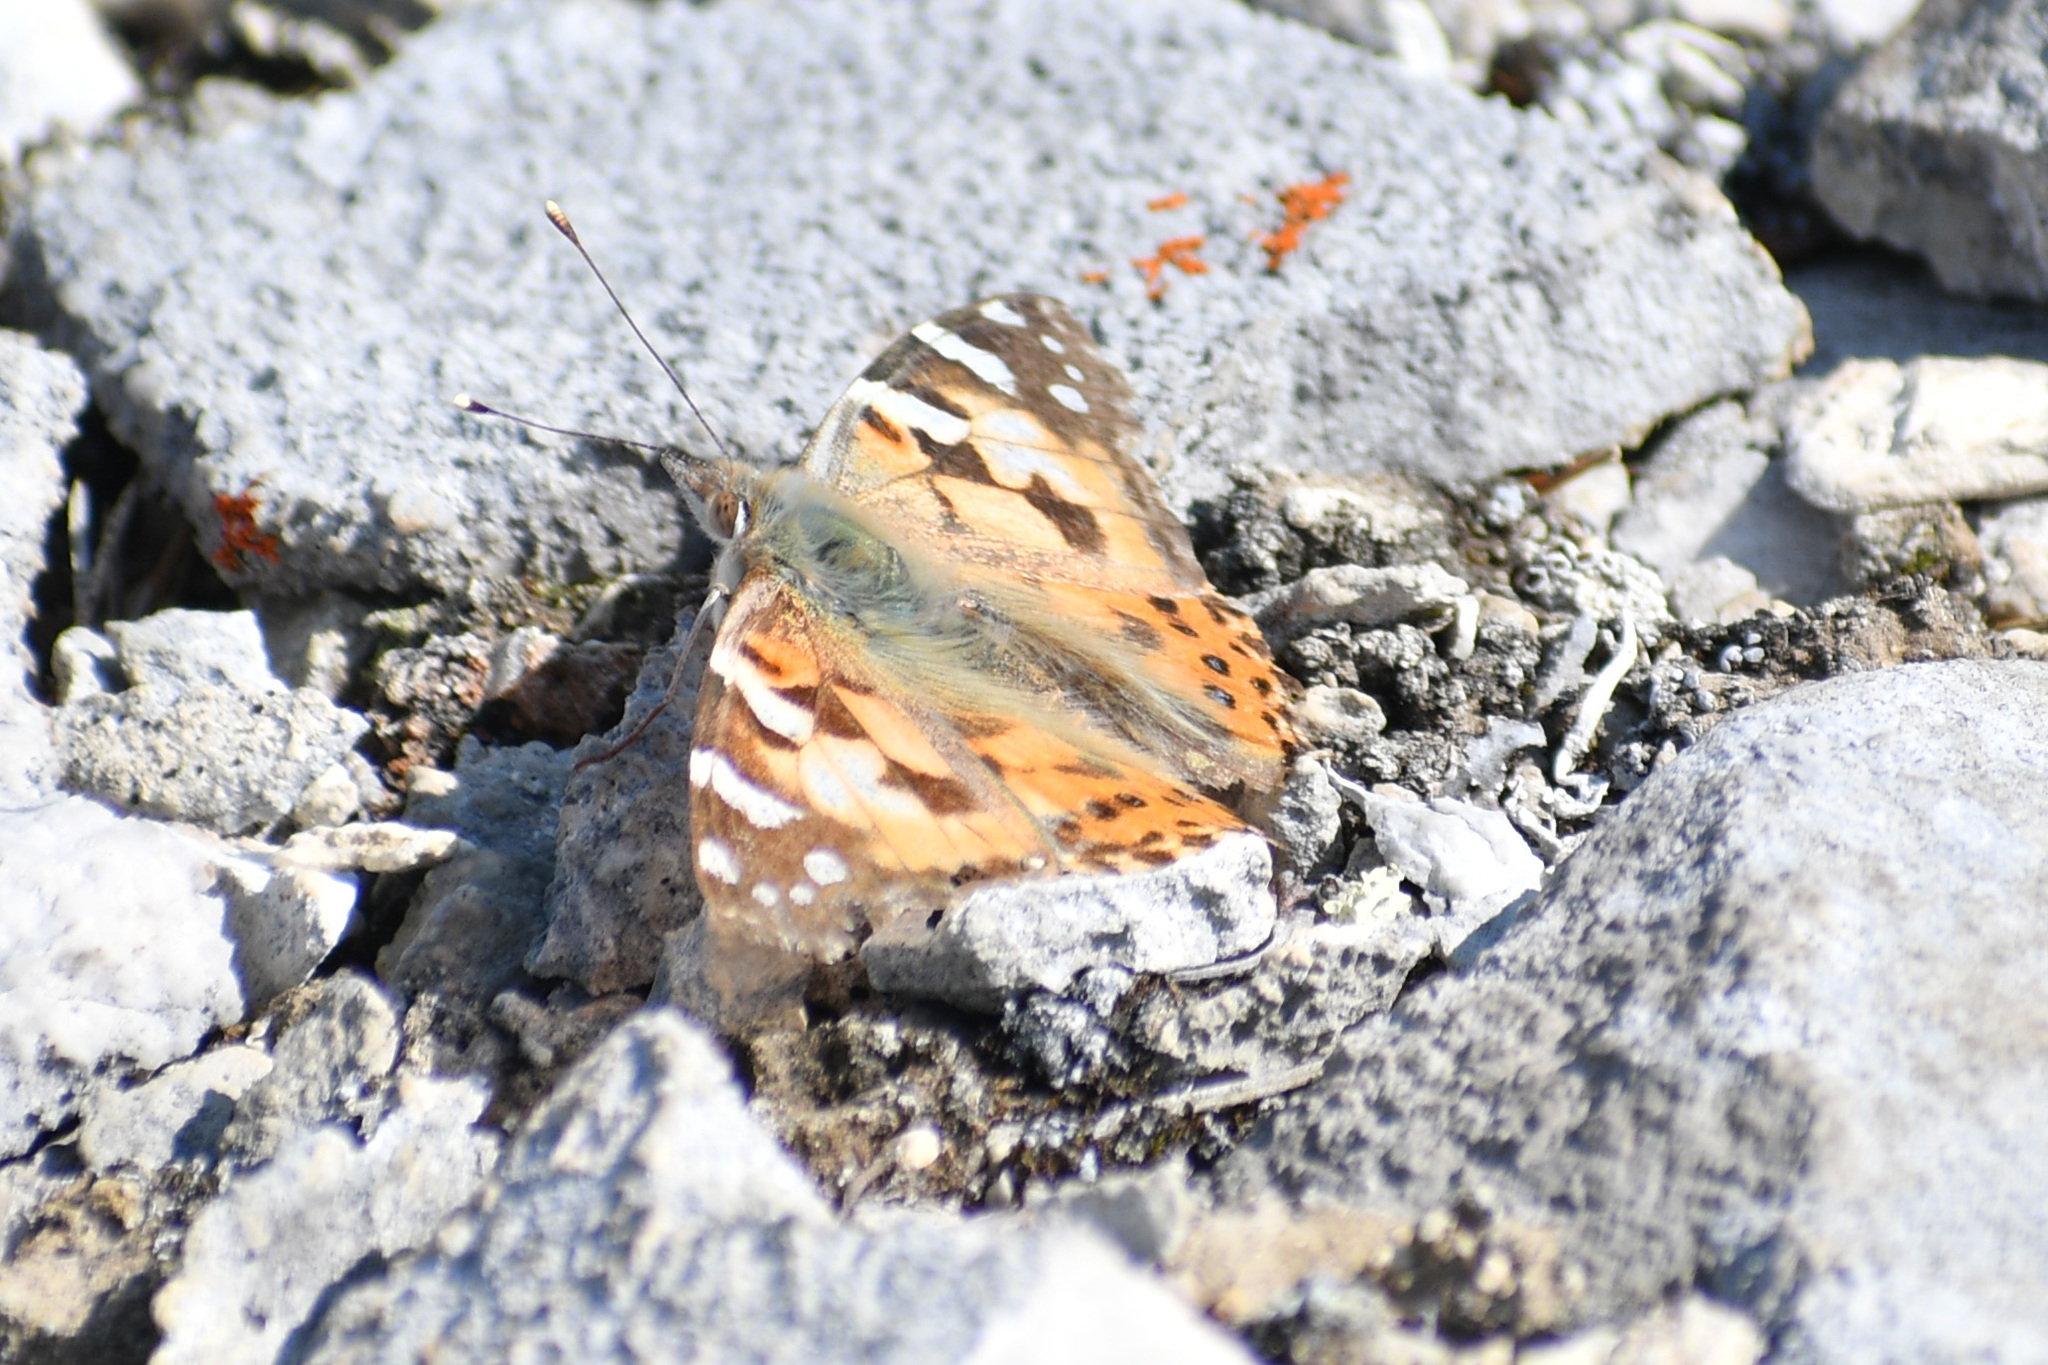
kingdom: Animalia
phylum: Arthropoda
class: Insecta
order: Lepidoptera
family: Nymphalidae
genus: Vanessa
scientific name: Vanessa cardui
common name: Painted lady
